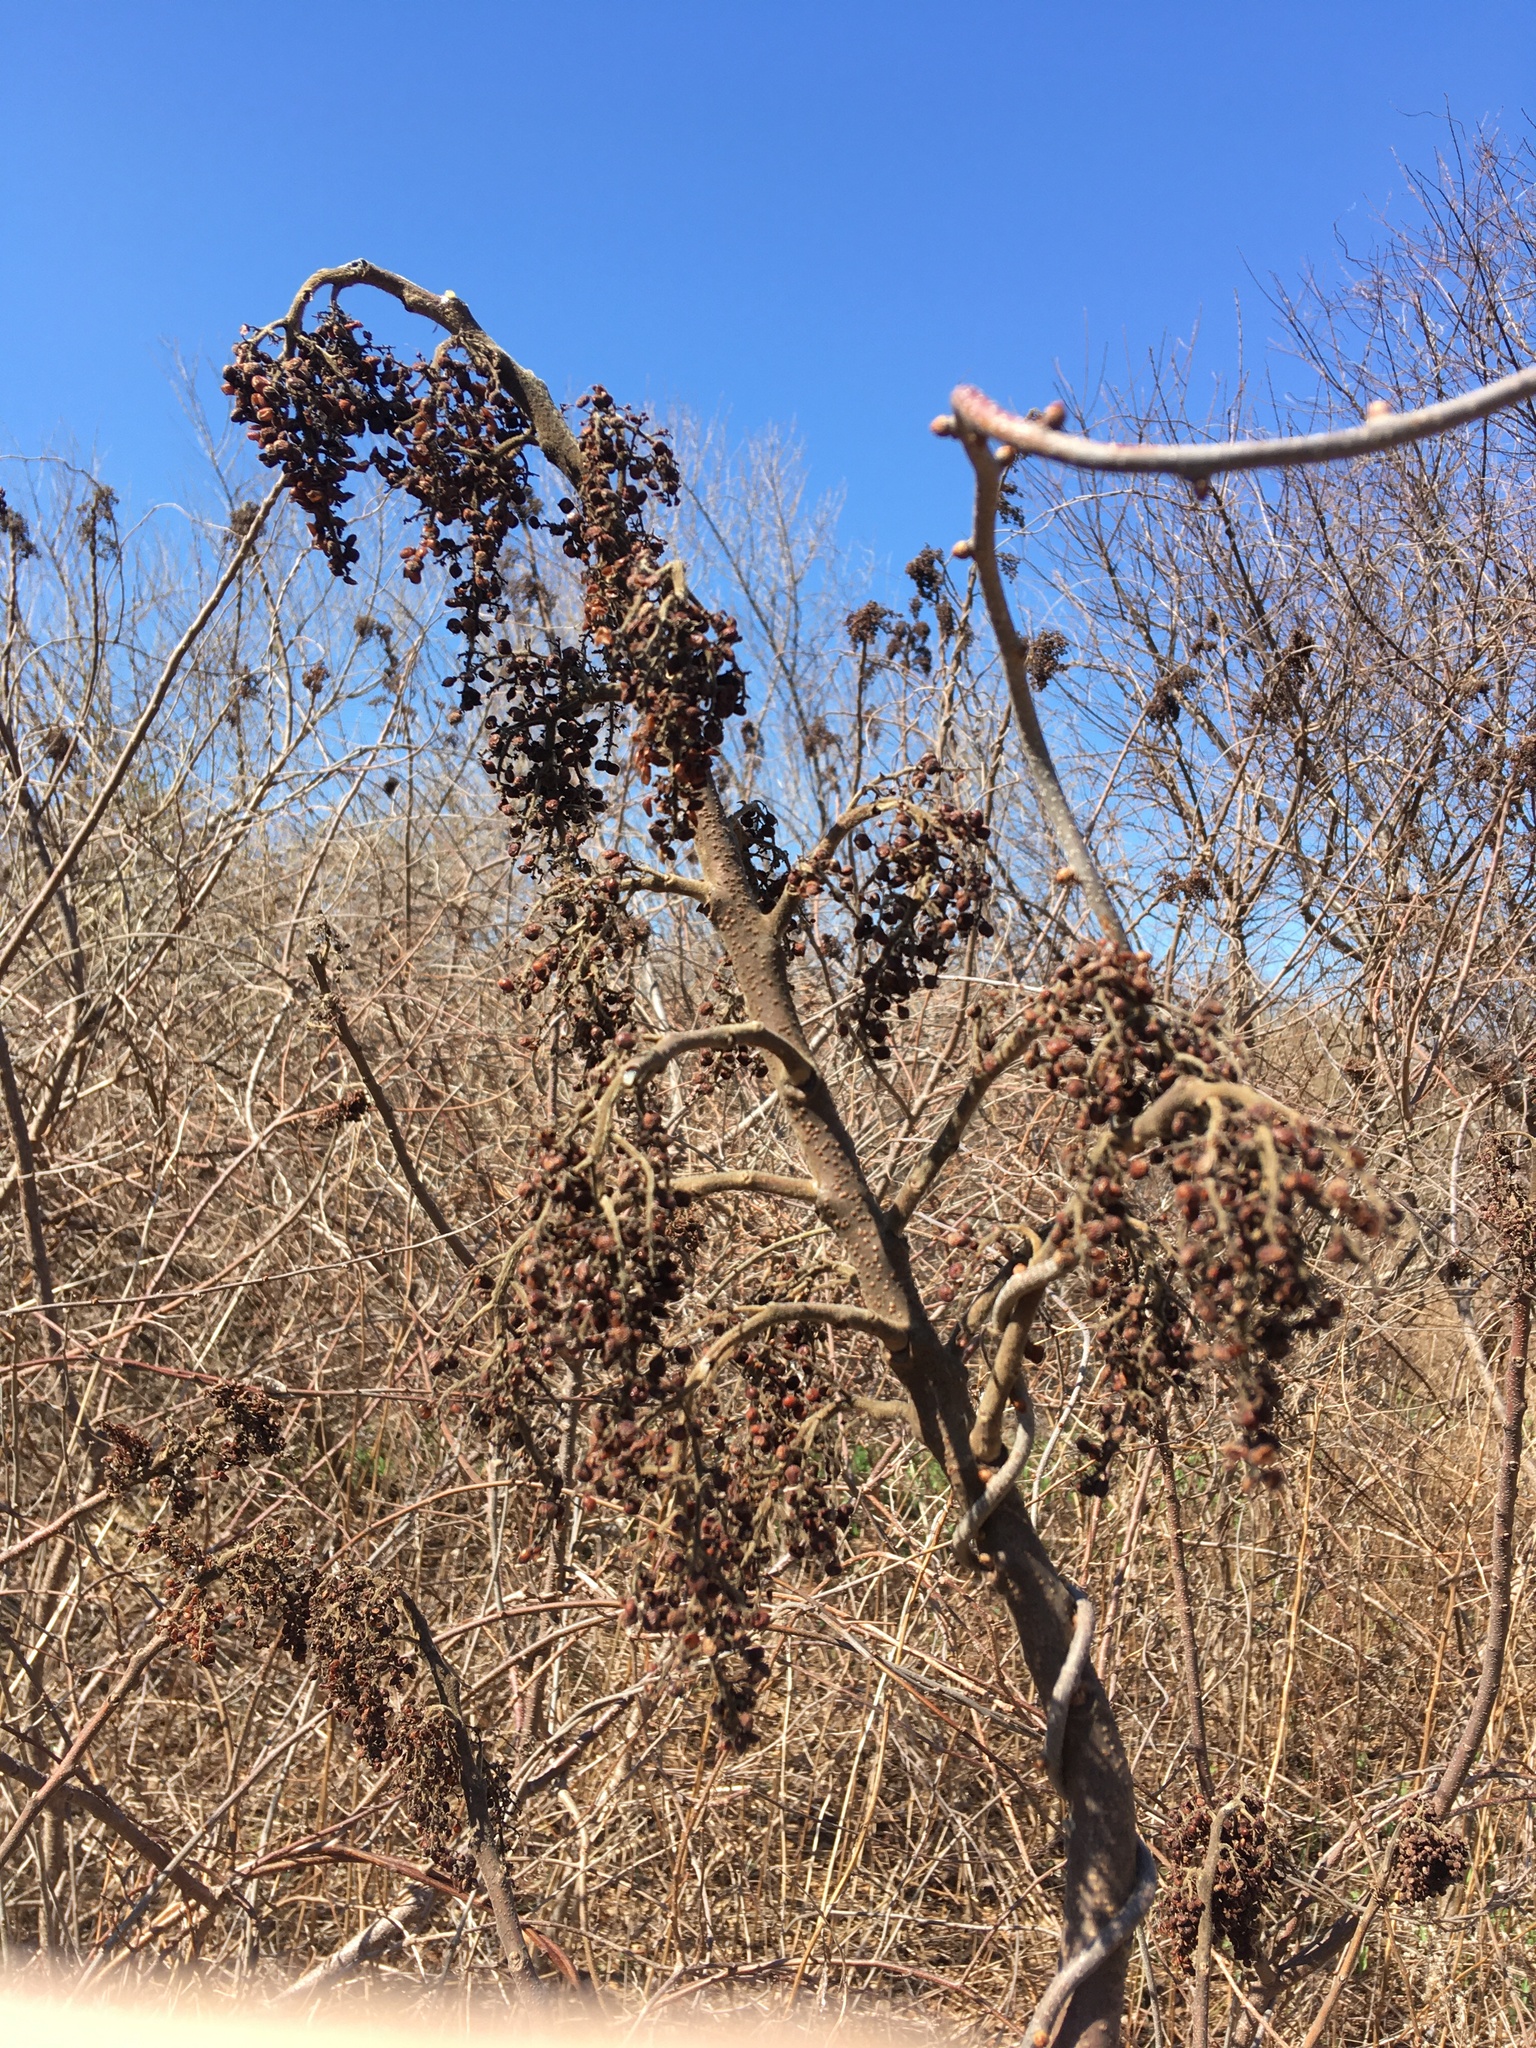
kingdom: Plantae
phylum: Tracheophyta
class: Magnoliopsida
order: Sapindales
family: Anacardiaceae
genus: Rhus
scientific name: Rhus copallina
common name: Shining sumac
